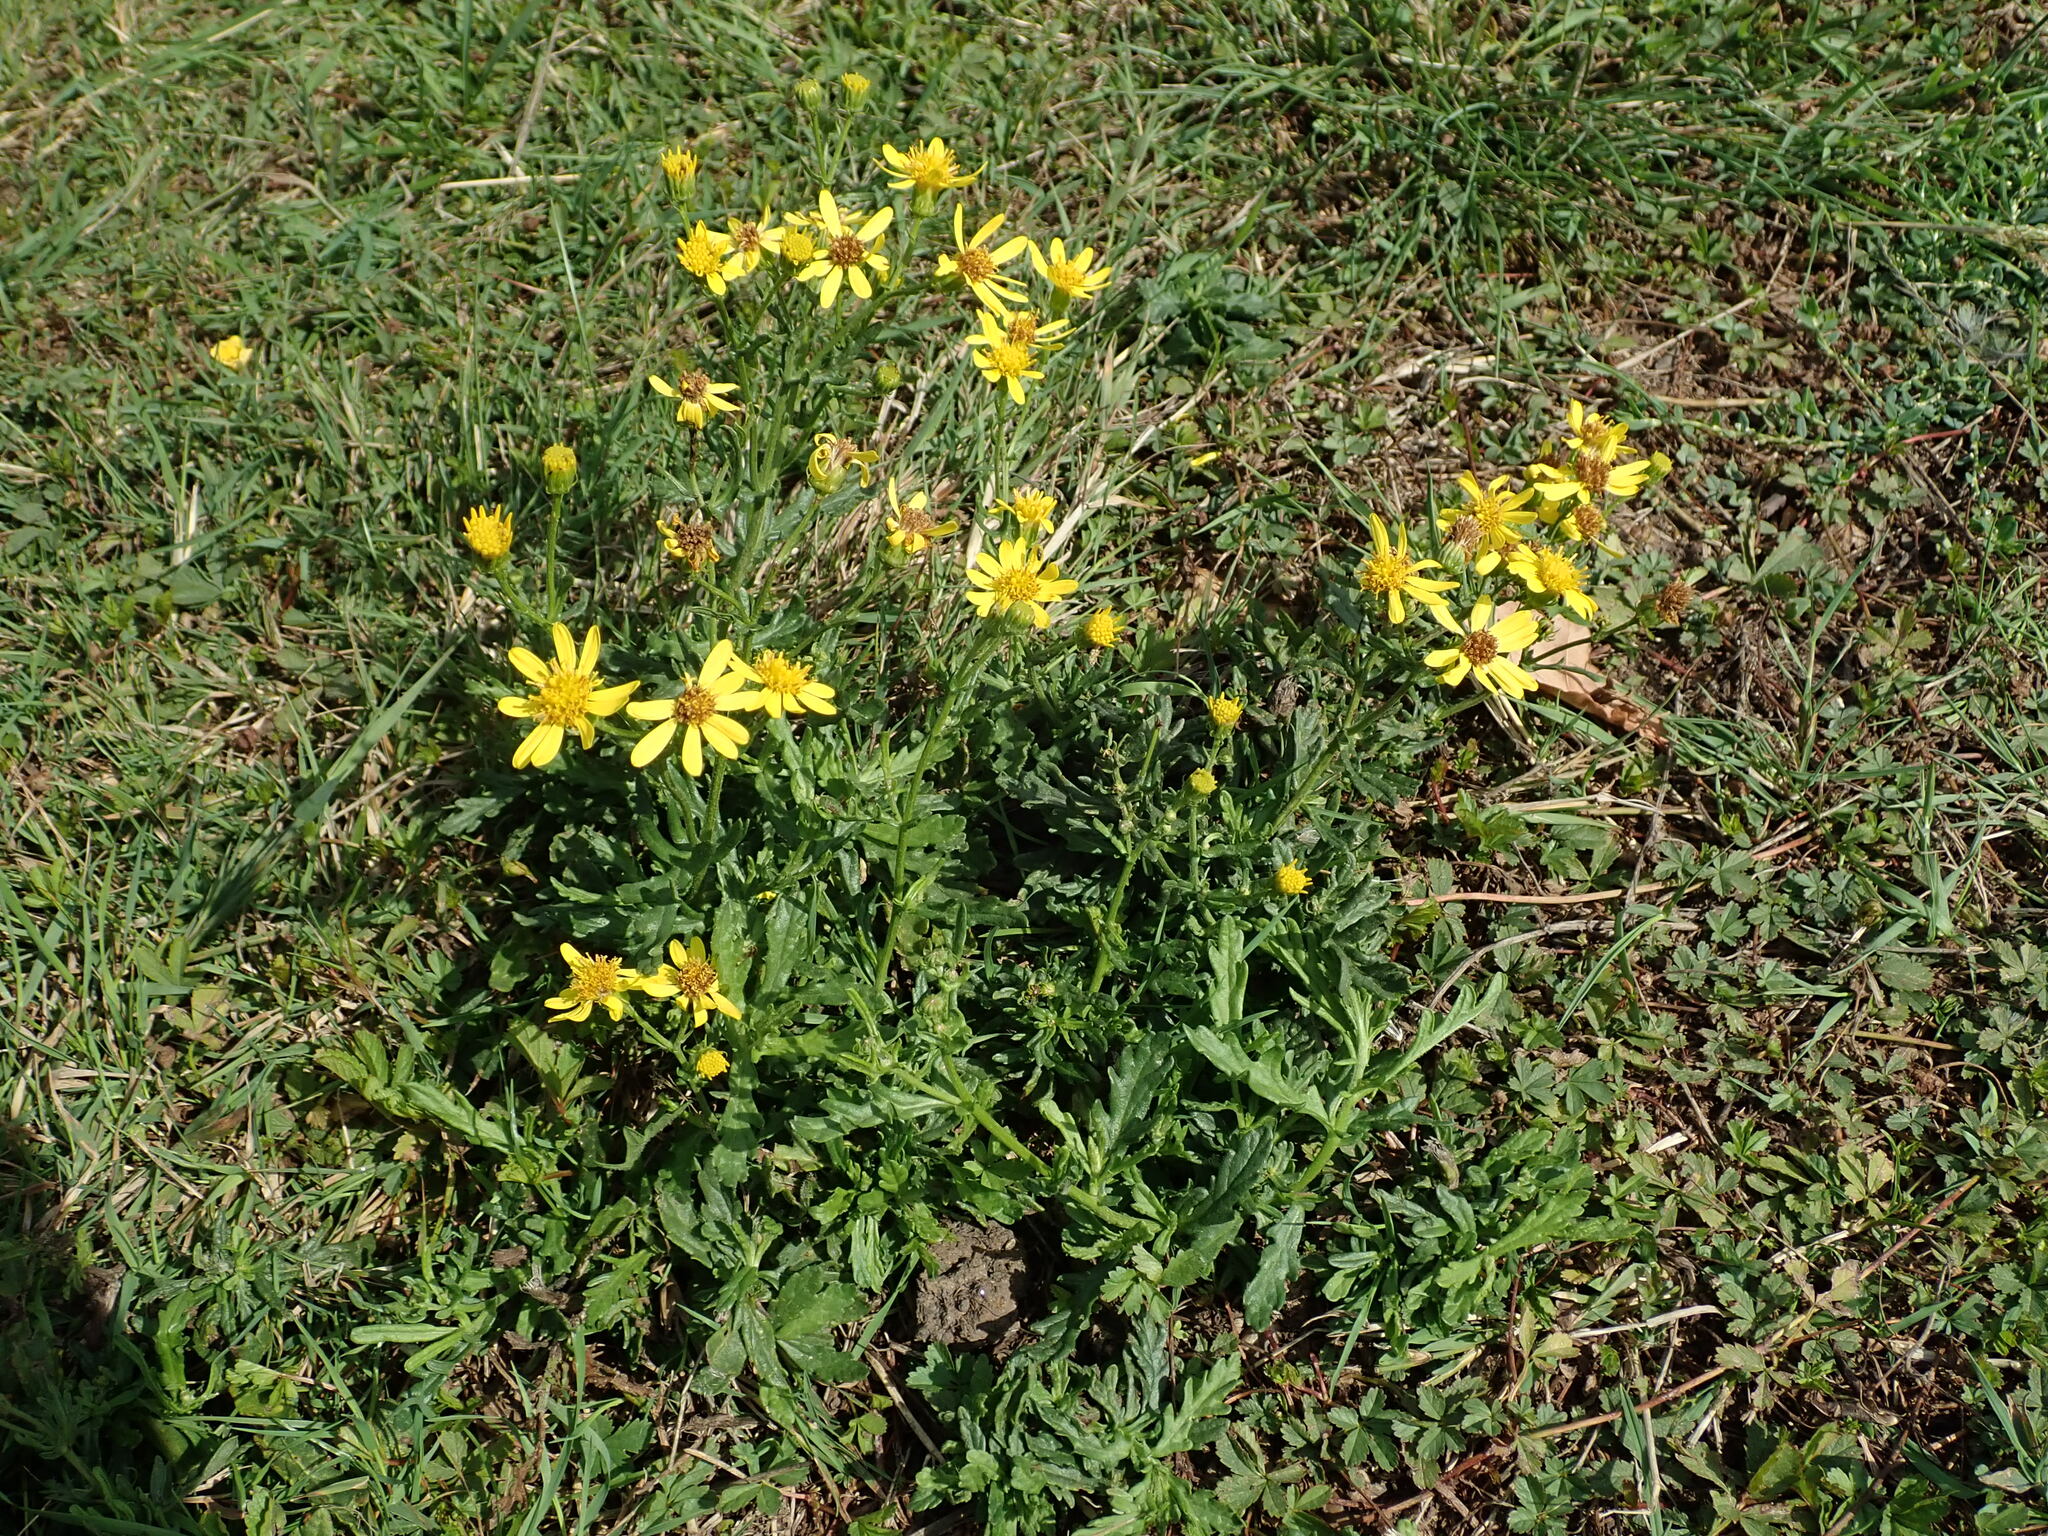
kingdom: Plantae
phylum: Tracheophyta
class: Magnoliopsida
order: Asterales
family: Asteraceae
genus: Senecio
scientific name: Senecio squalidus
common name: Oxford ragwort
